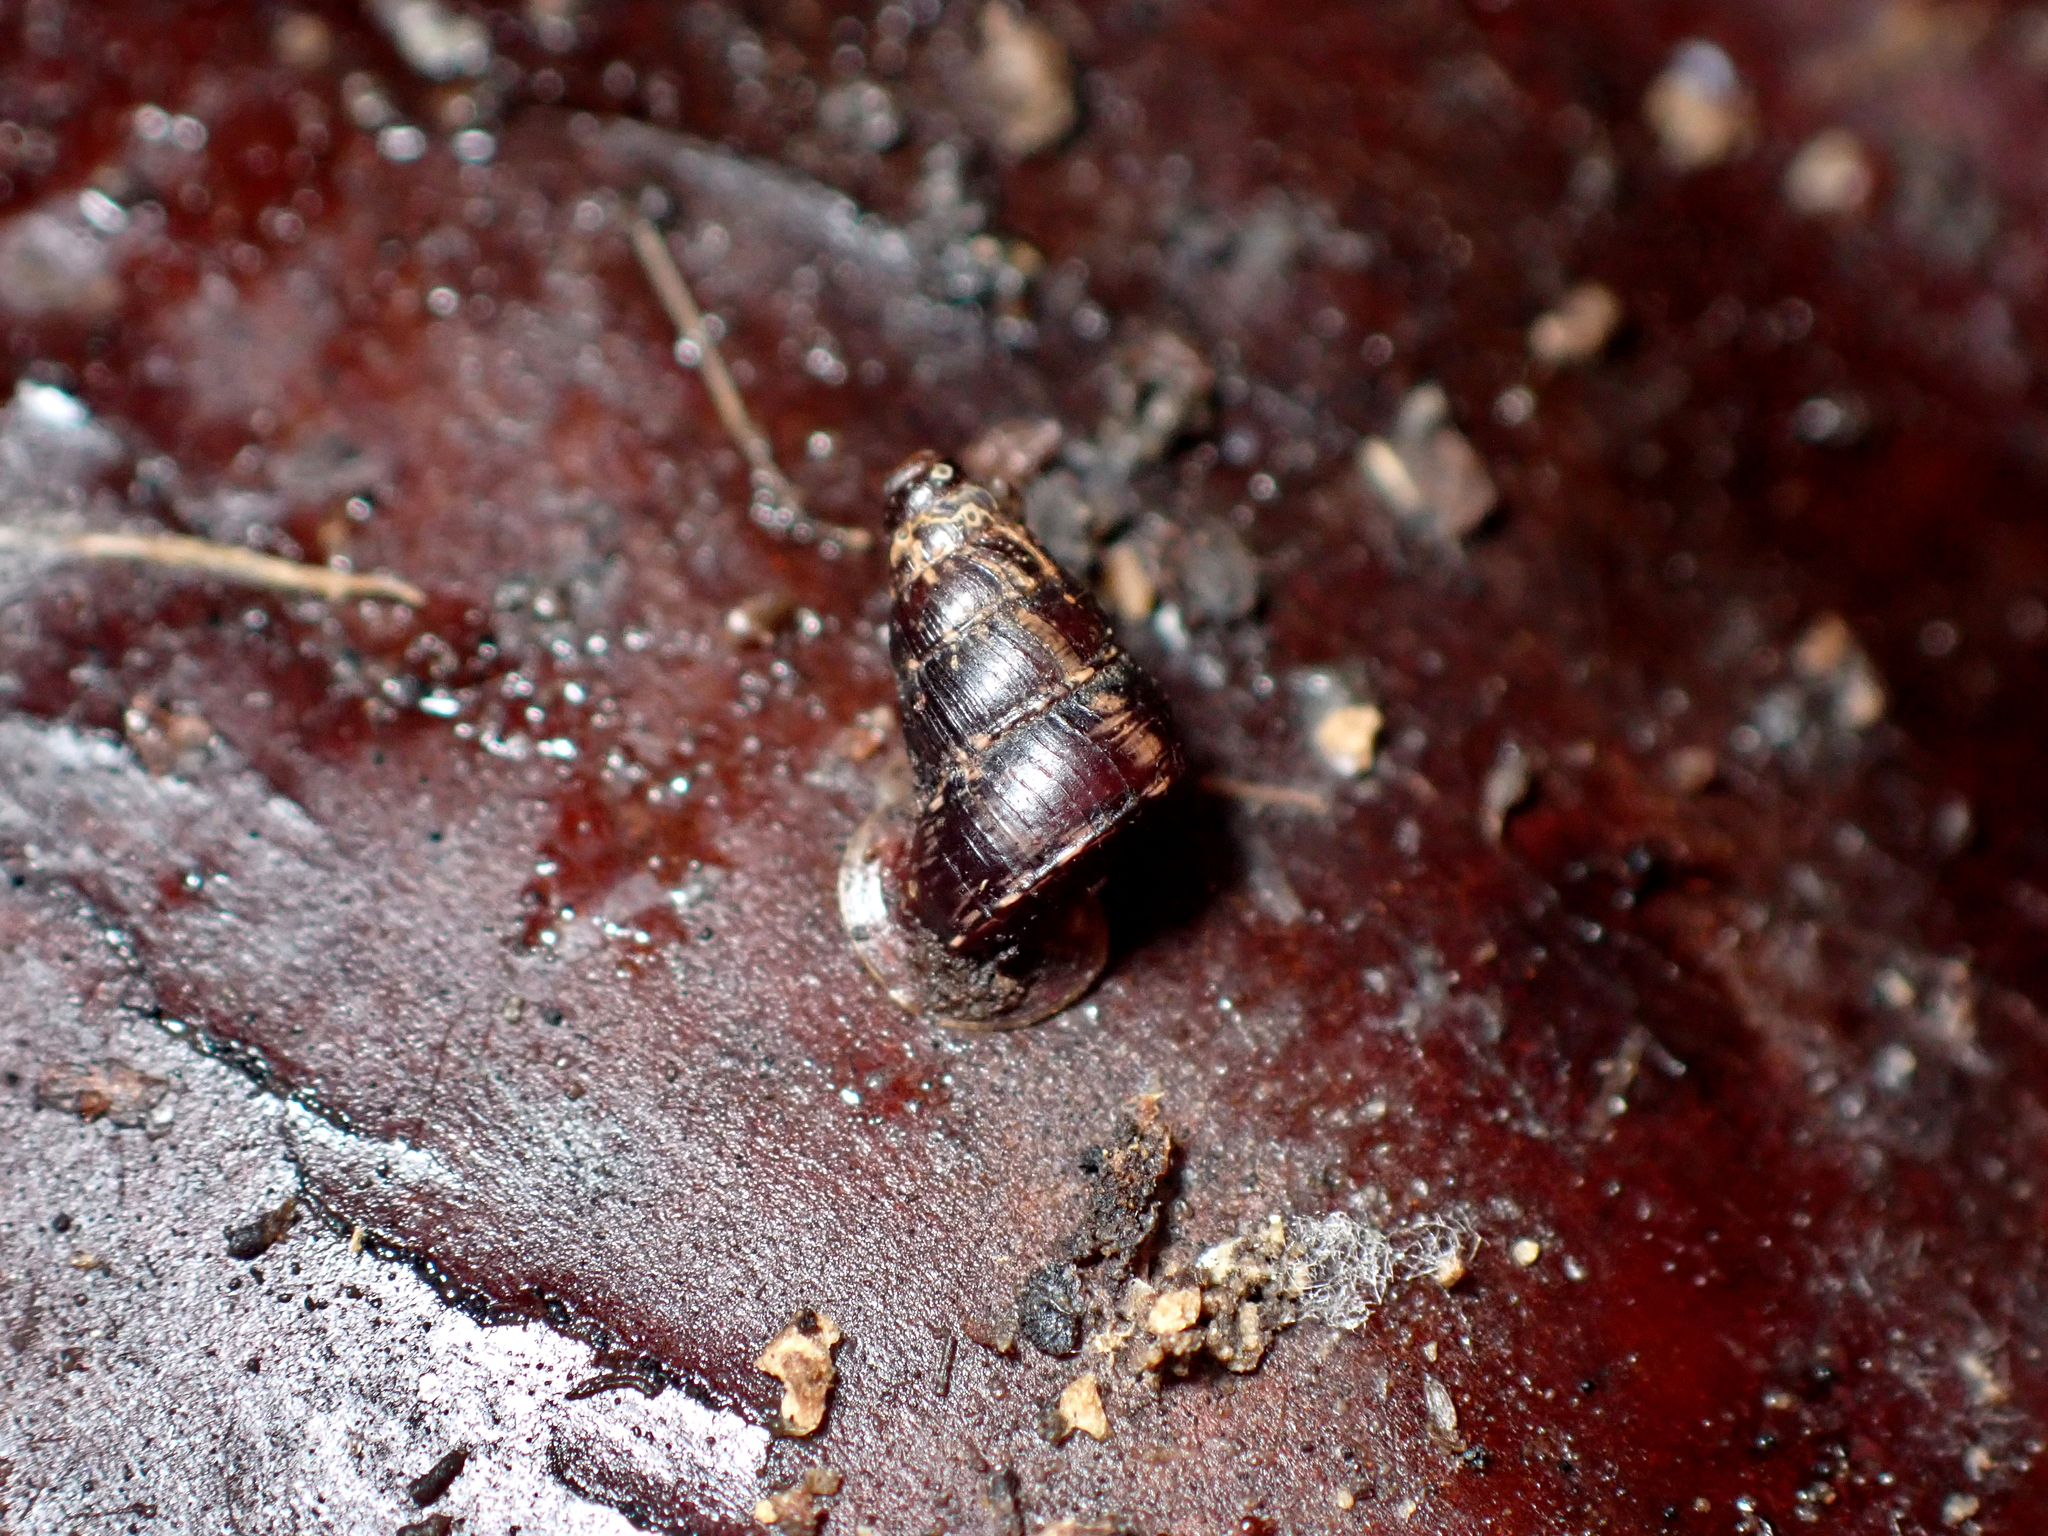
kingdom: Animalia
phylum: Mollusca
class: Gastropoda
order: Architaenioglossa
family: Pupinidae
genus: Liarea
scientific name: Liarea ornata
